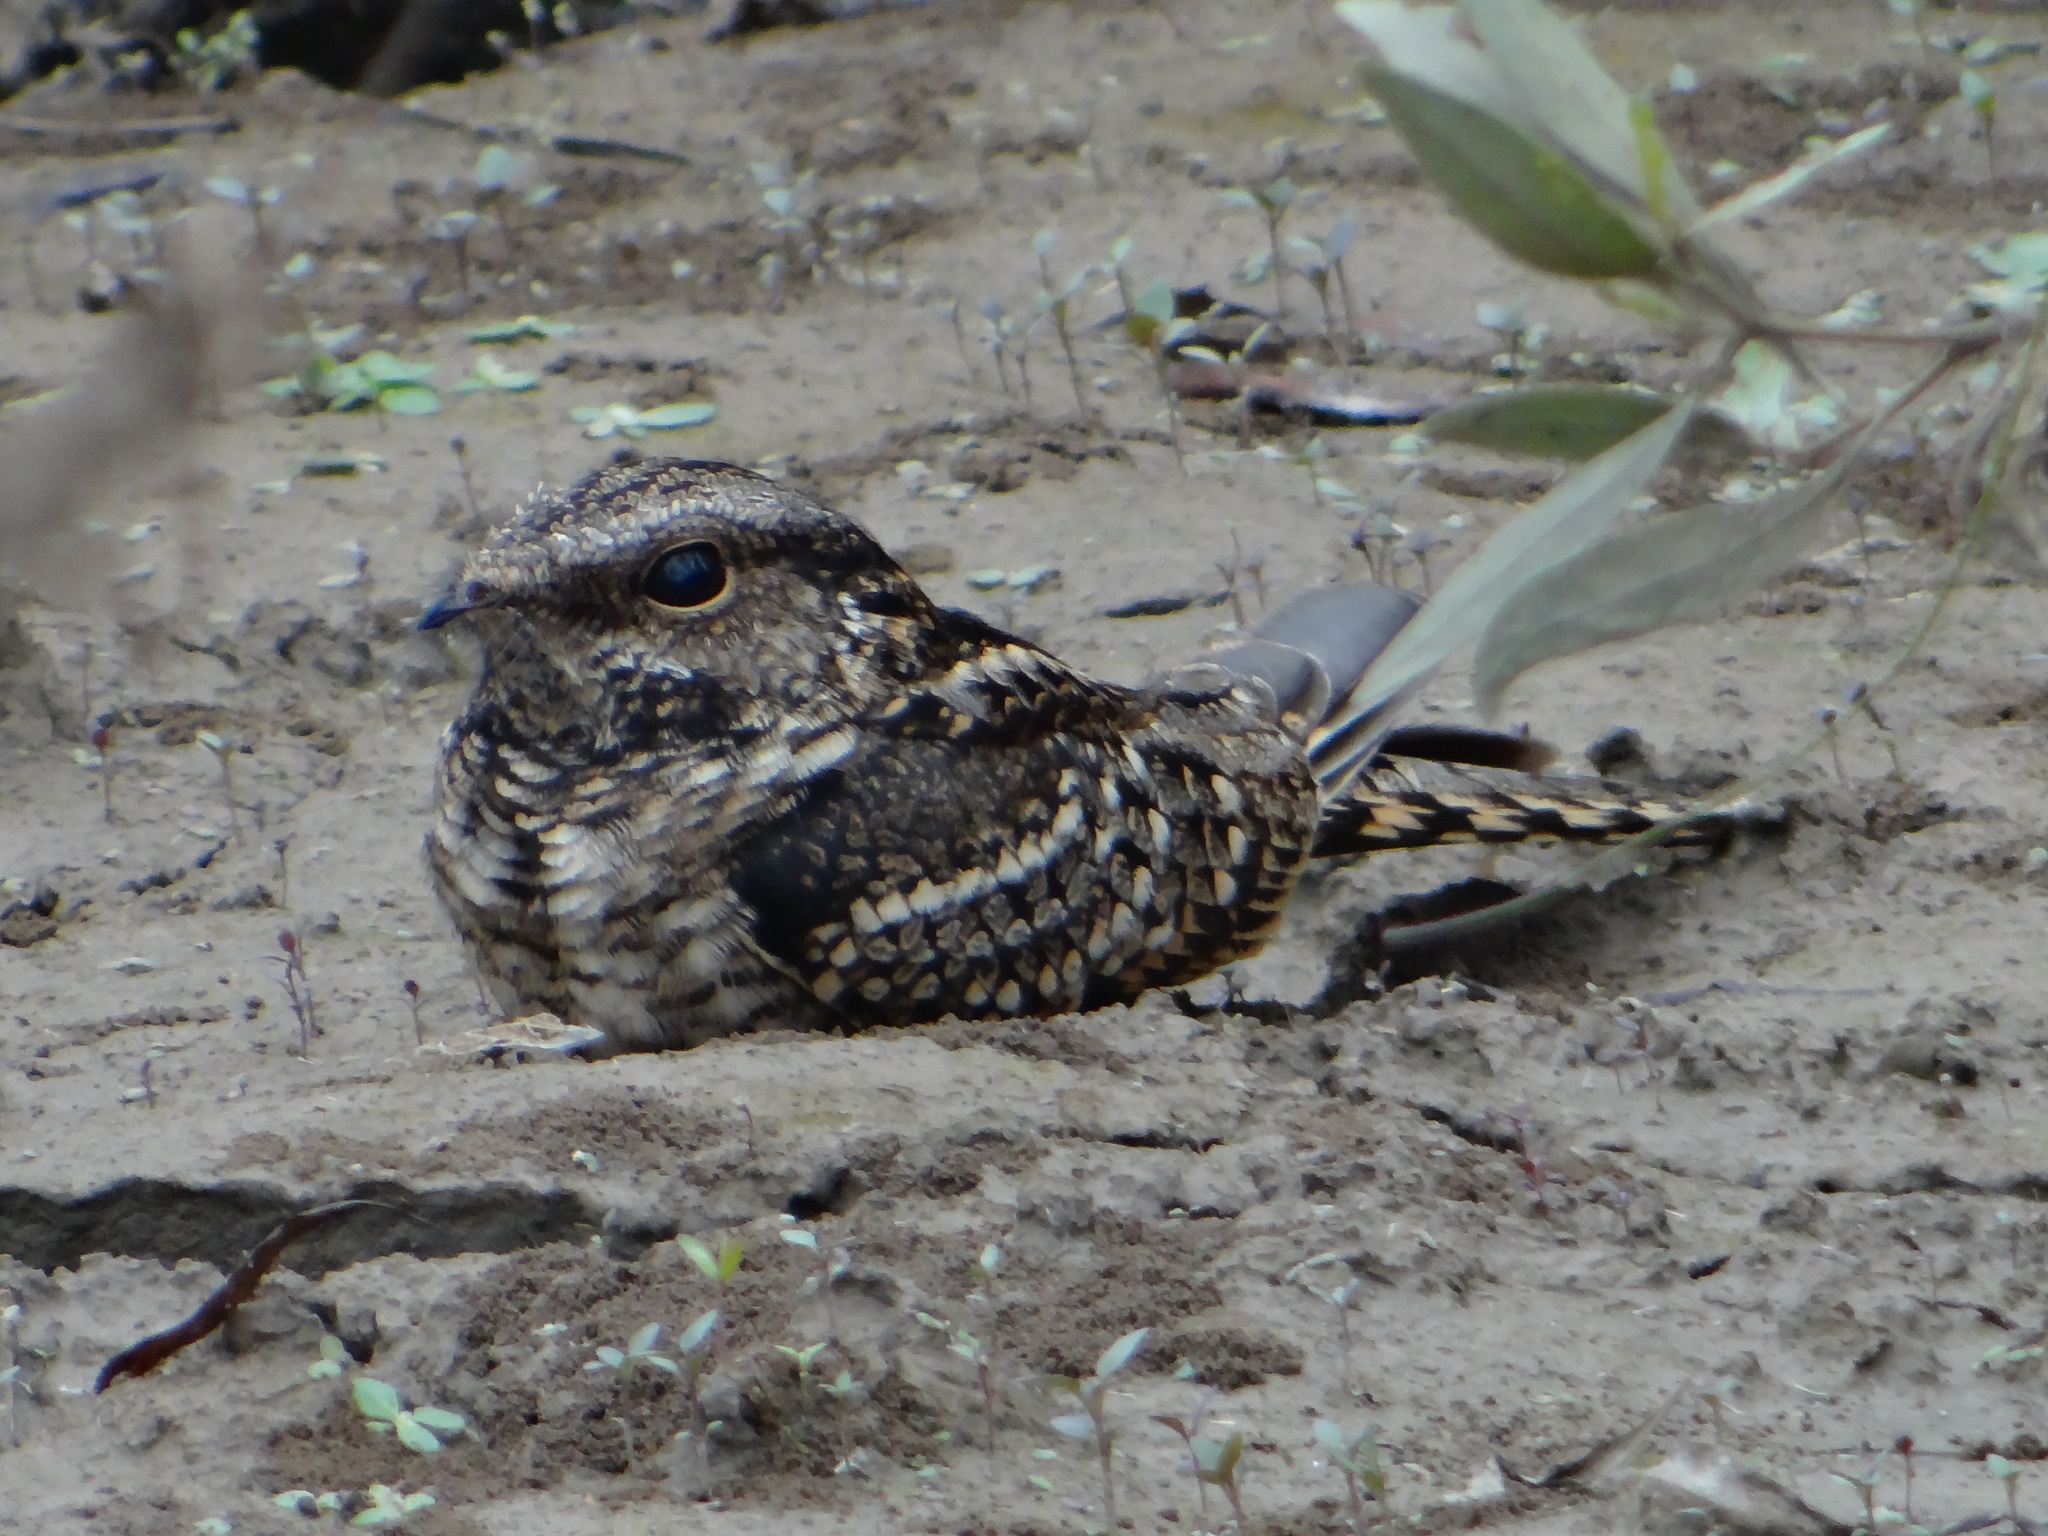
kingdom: Animalia
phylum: Chordata
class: Aves
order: Caprimulgiformes
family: Caprimulgidae
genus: Hydropsalis
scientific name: Hydropsalis climacocerca
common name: Ladder-tailed nightjar
